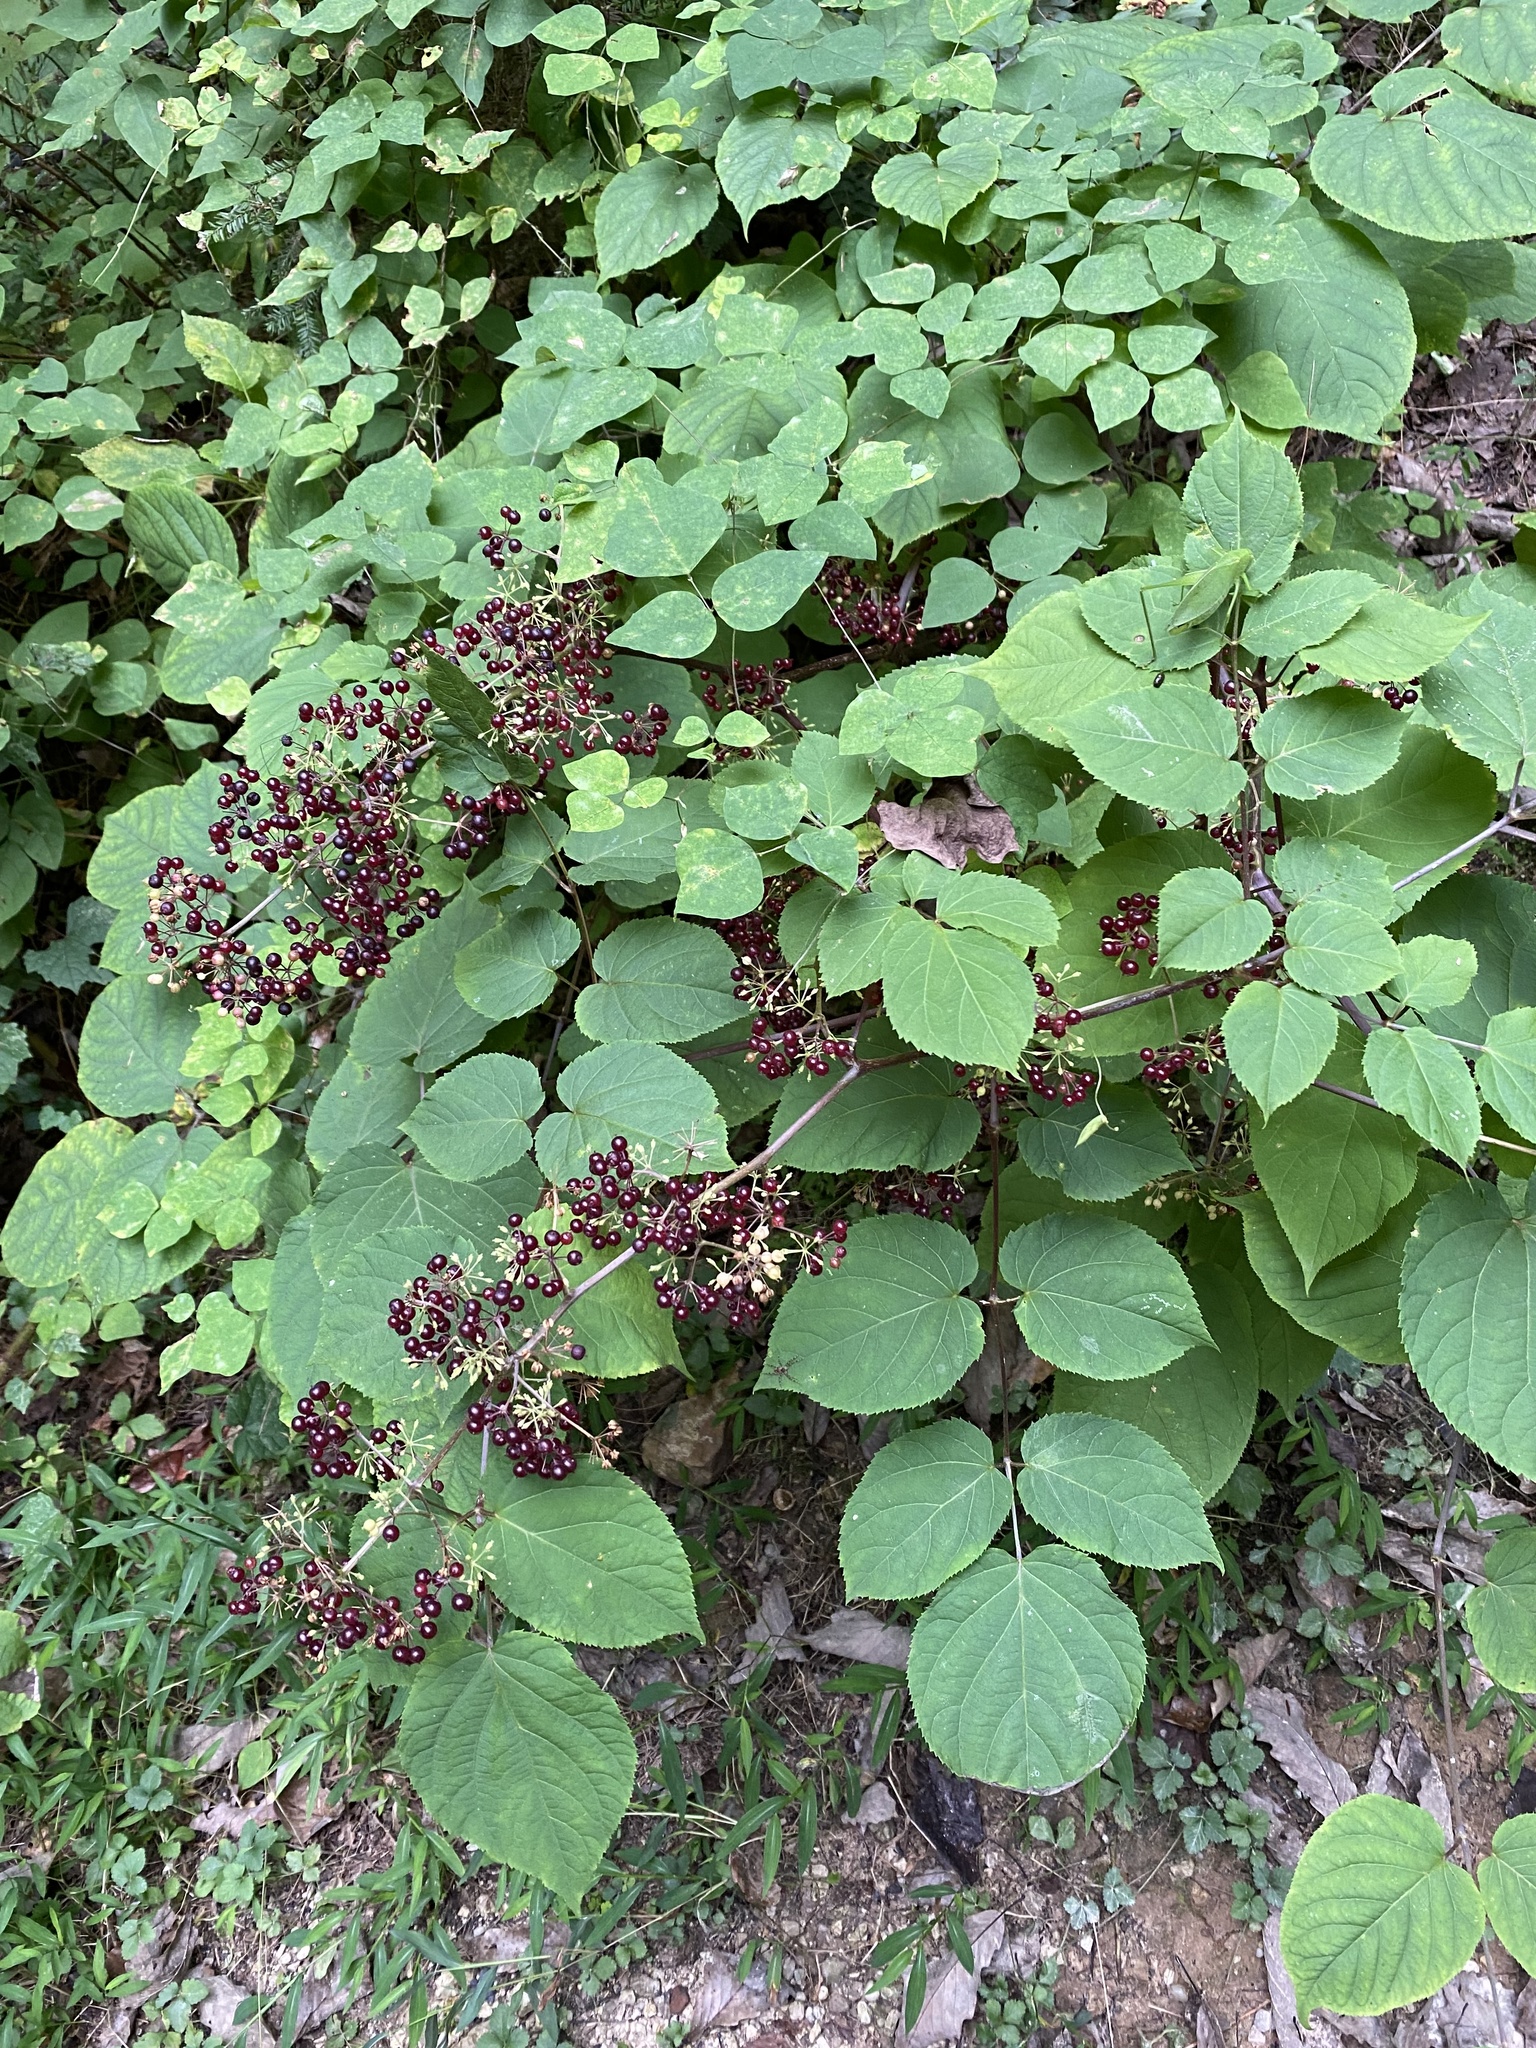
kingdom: Plantae
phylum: Tracheophyta
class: Magnoliopsida
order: Apiales
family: Araliaceae
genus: Aralia
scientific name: Aralia racemosa
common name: American-spikenard
